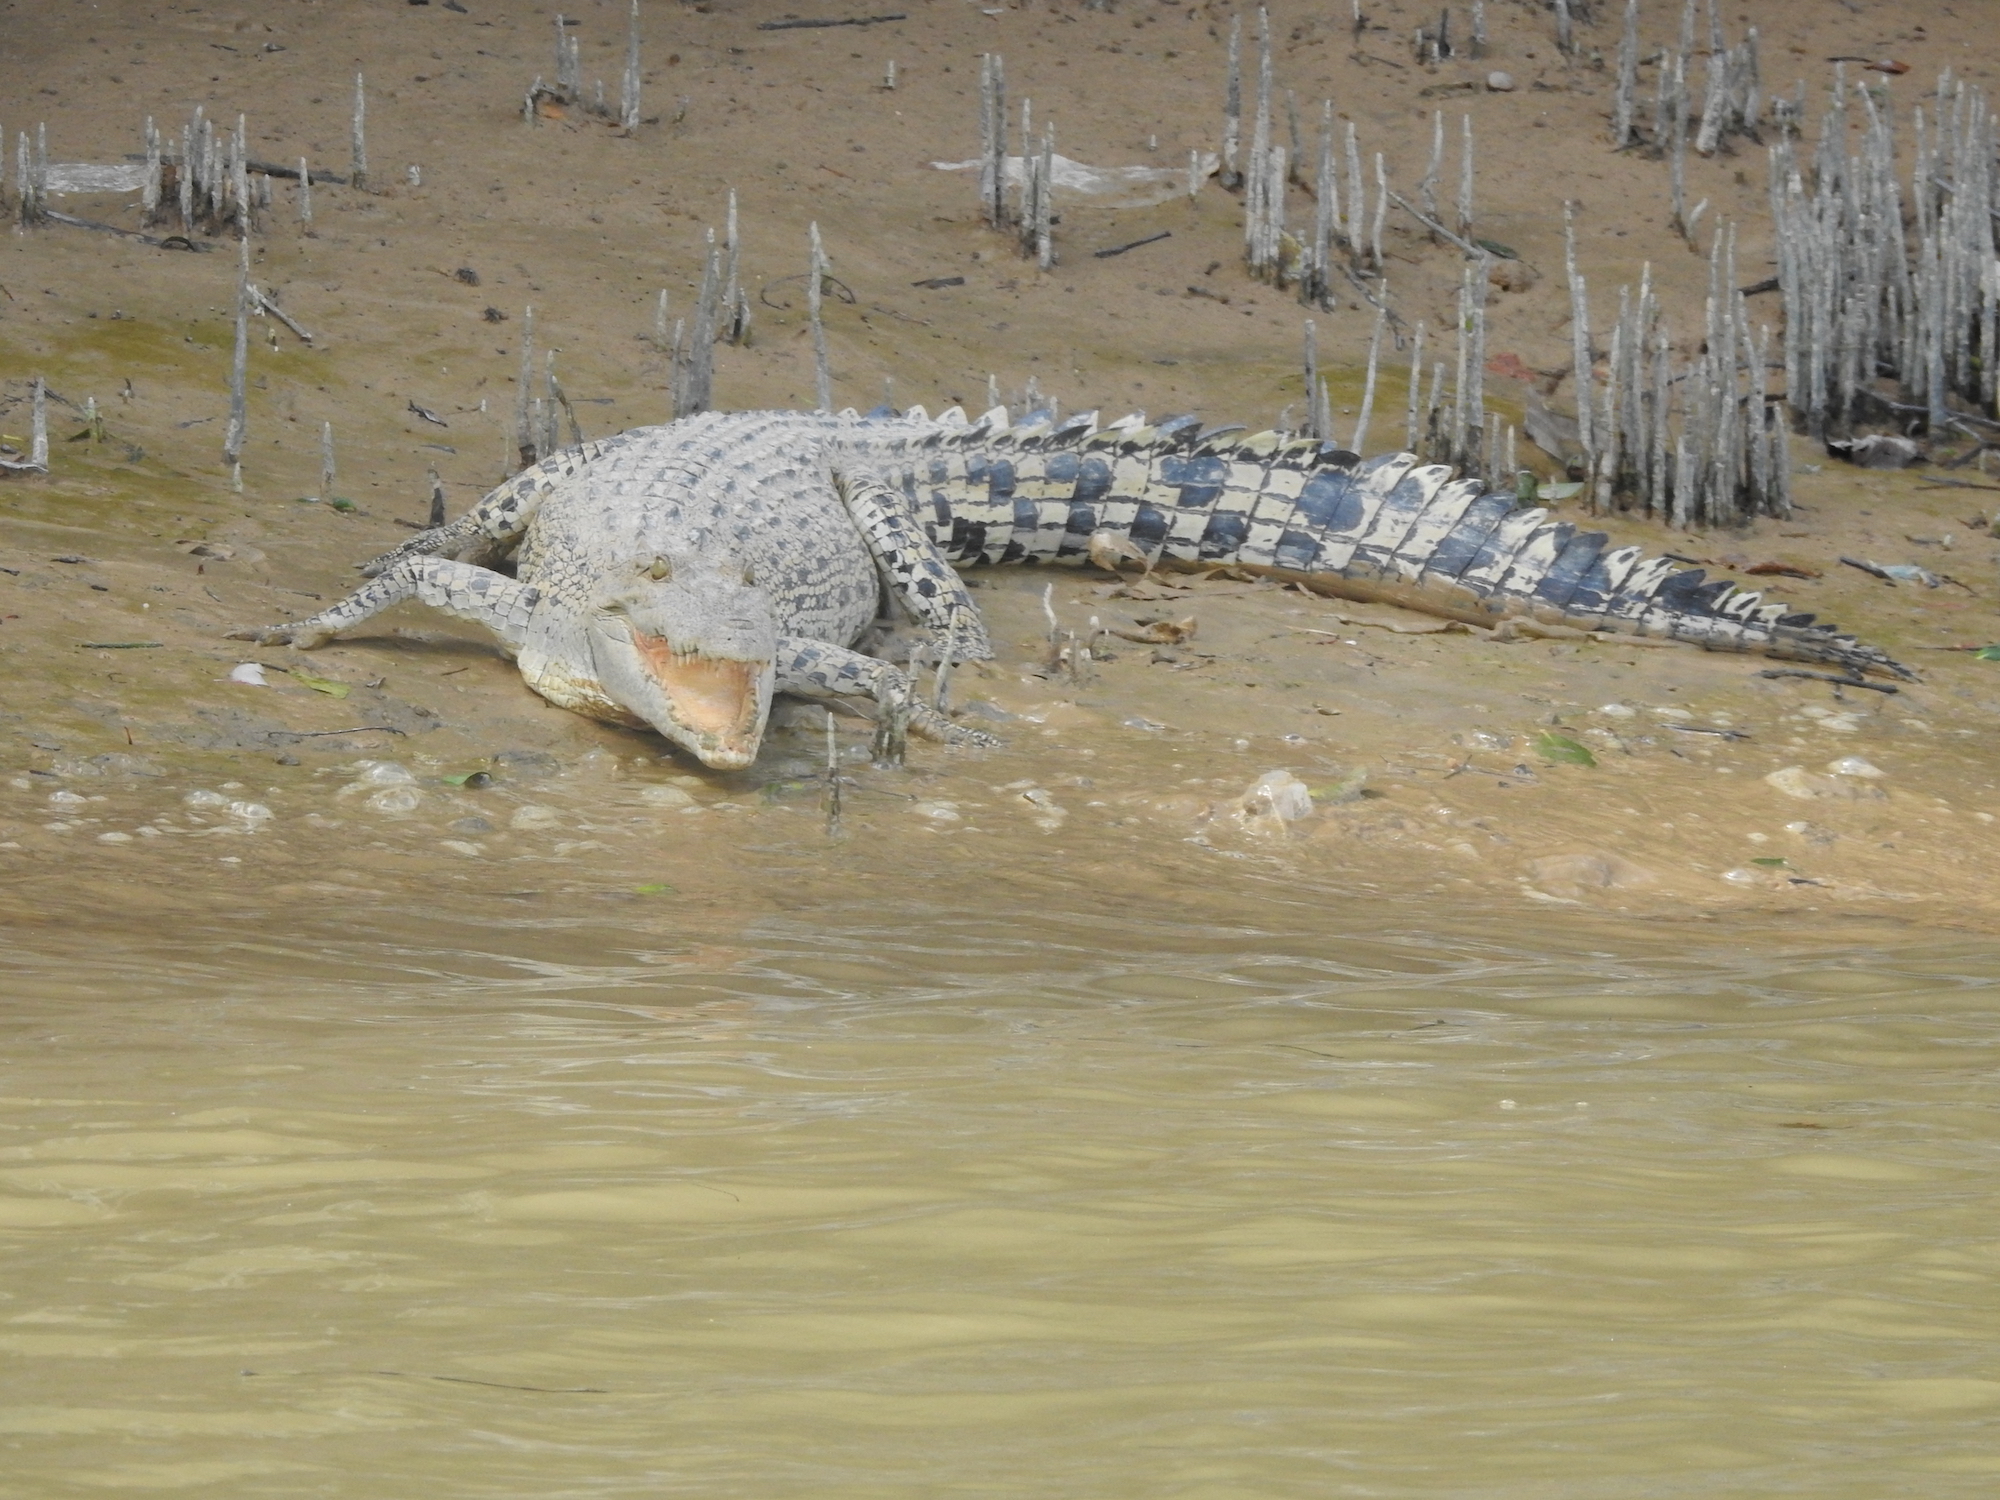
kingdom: Animalia
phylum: Chordata
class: Crocodylia
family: Crocodylidae
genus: Crocodylus
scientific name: Crocodylus porosus
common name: Saltwater crocodile
